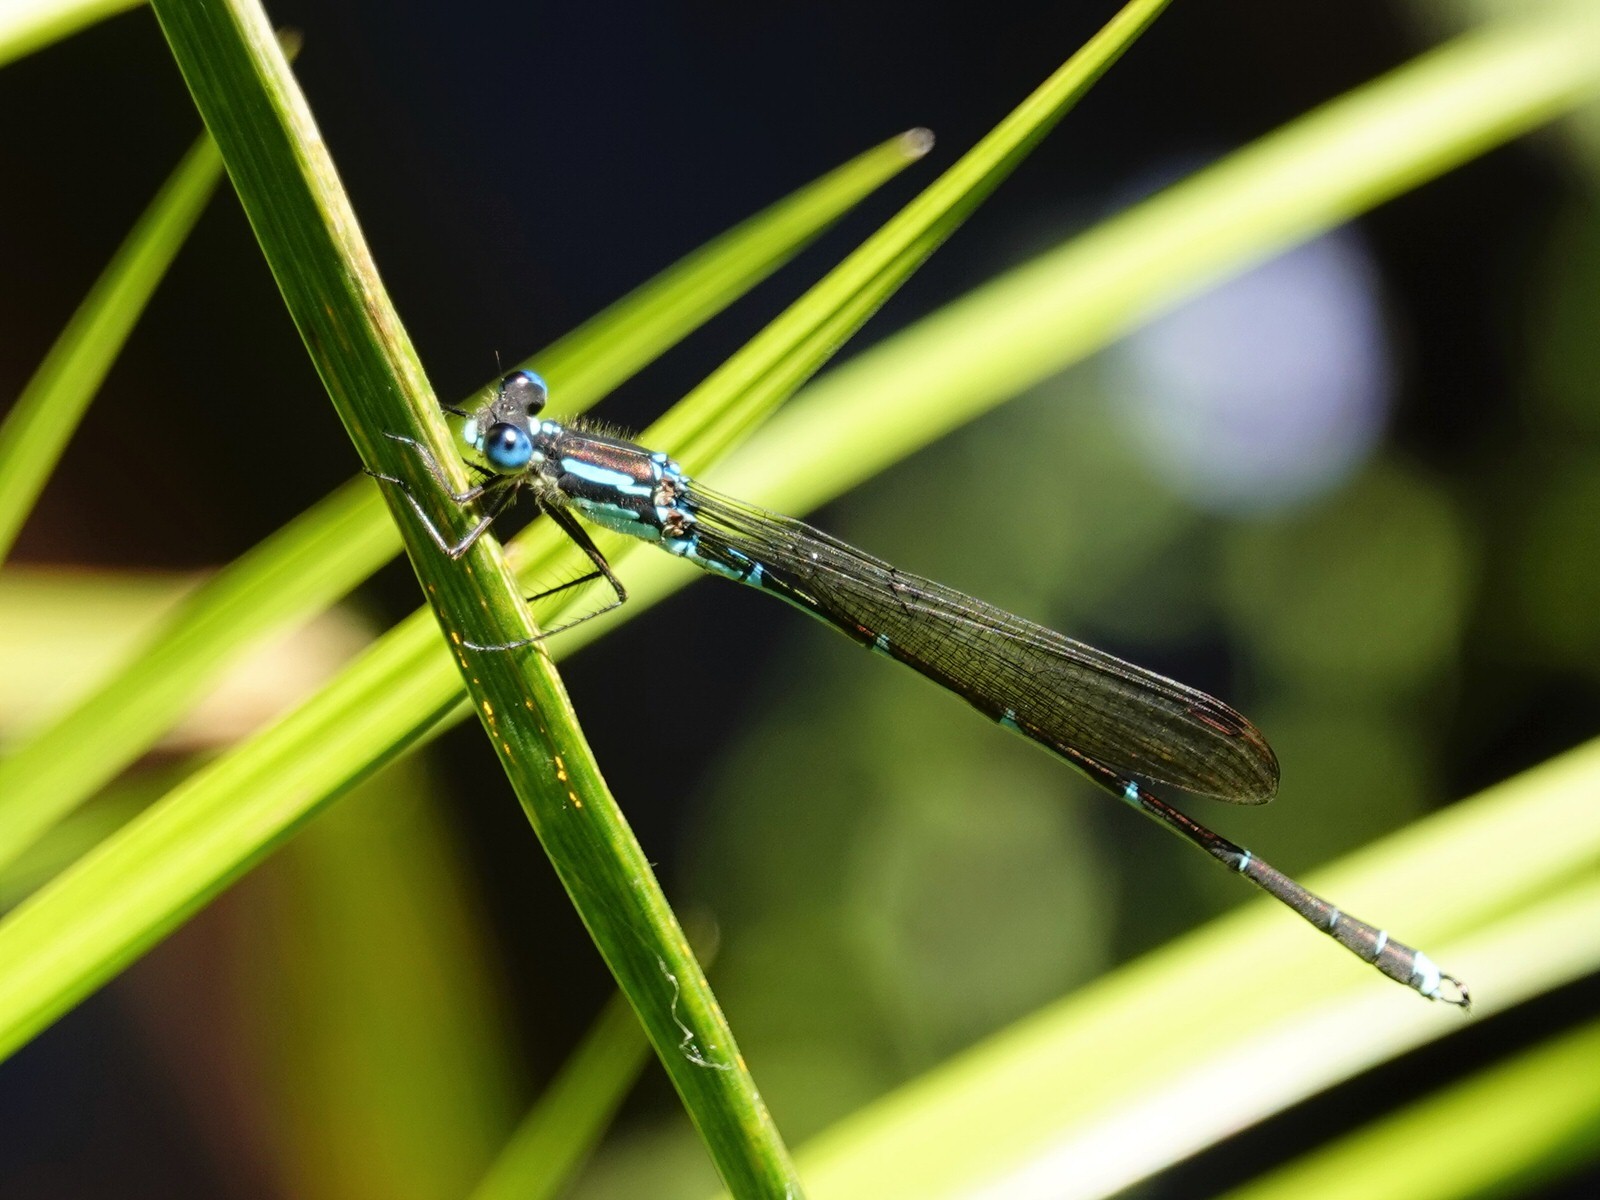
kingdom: Animalia
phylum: Arthropoda
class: Insecta
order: Odonata
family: Lestidae
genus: Austrolestes
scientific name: Austrolestes colensonis
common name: Blue damselfly
